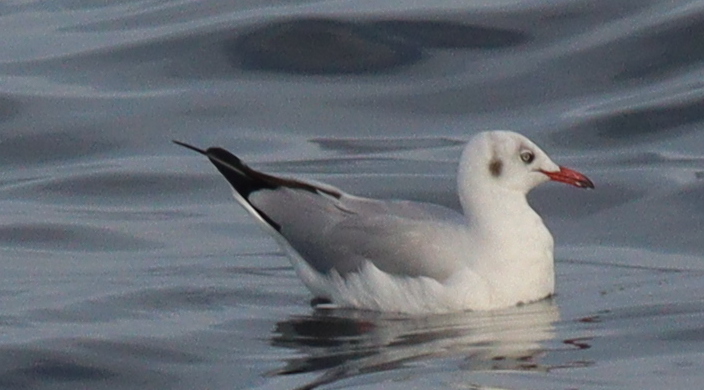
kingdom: Animalia
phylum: Chordata
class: Aves
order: Charadriiformes
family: Laridae
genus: Chroicocephalus
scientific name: Chroicocephalus brunnicephalus
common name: Brown-headed gull
